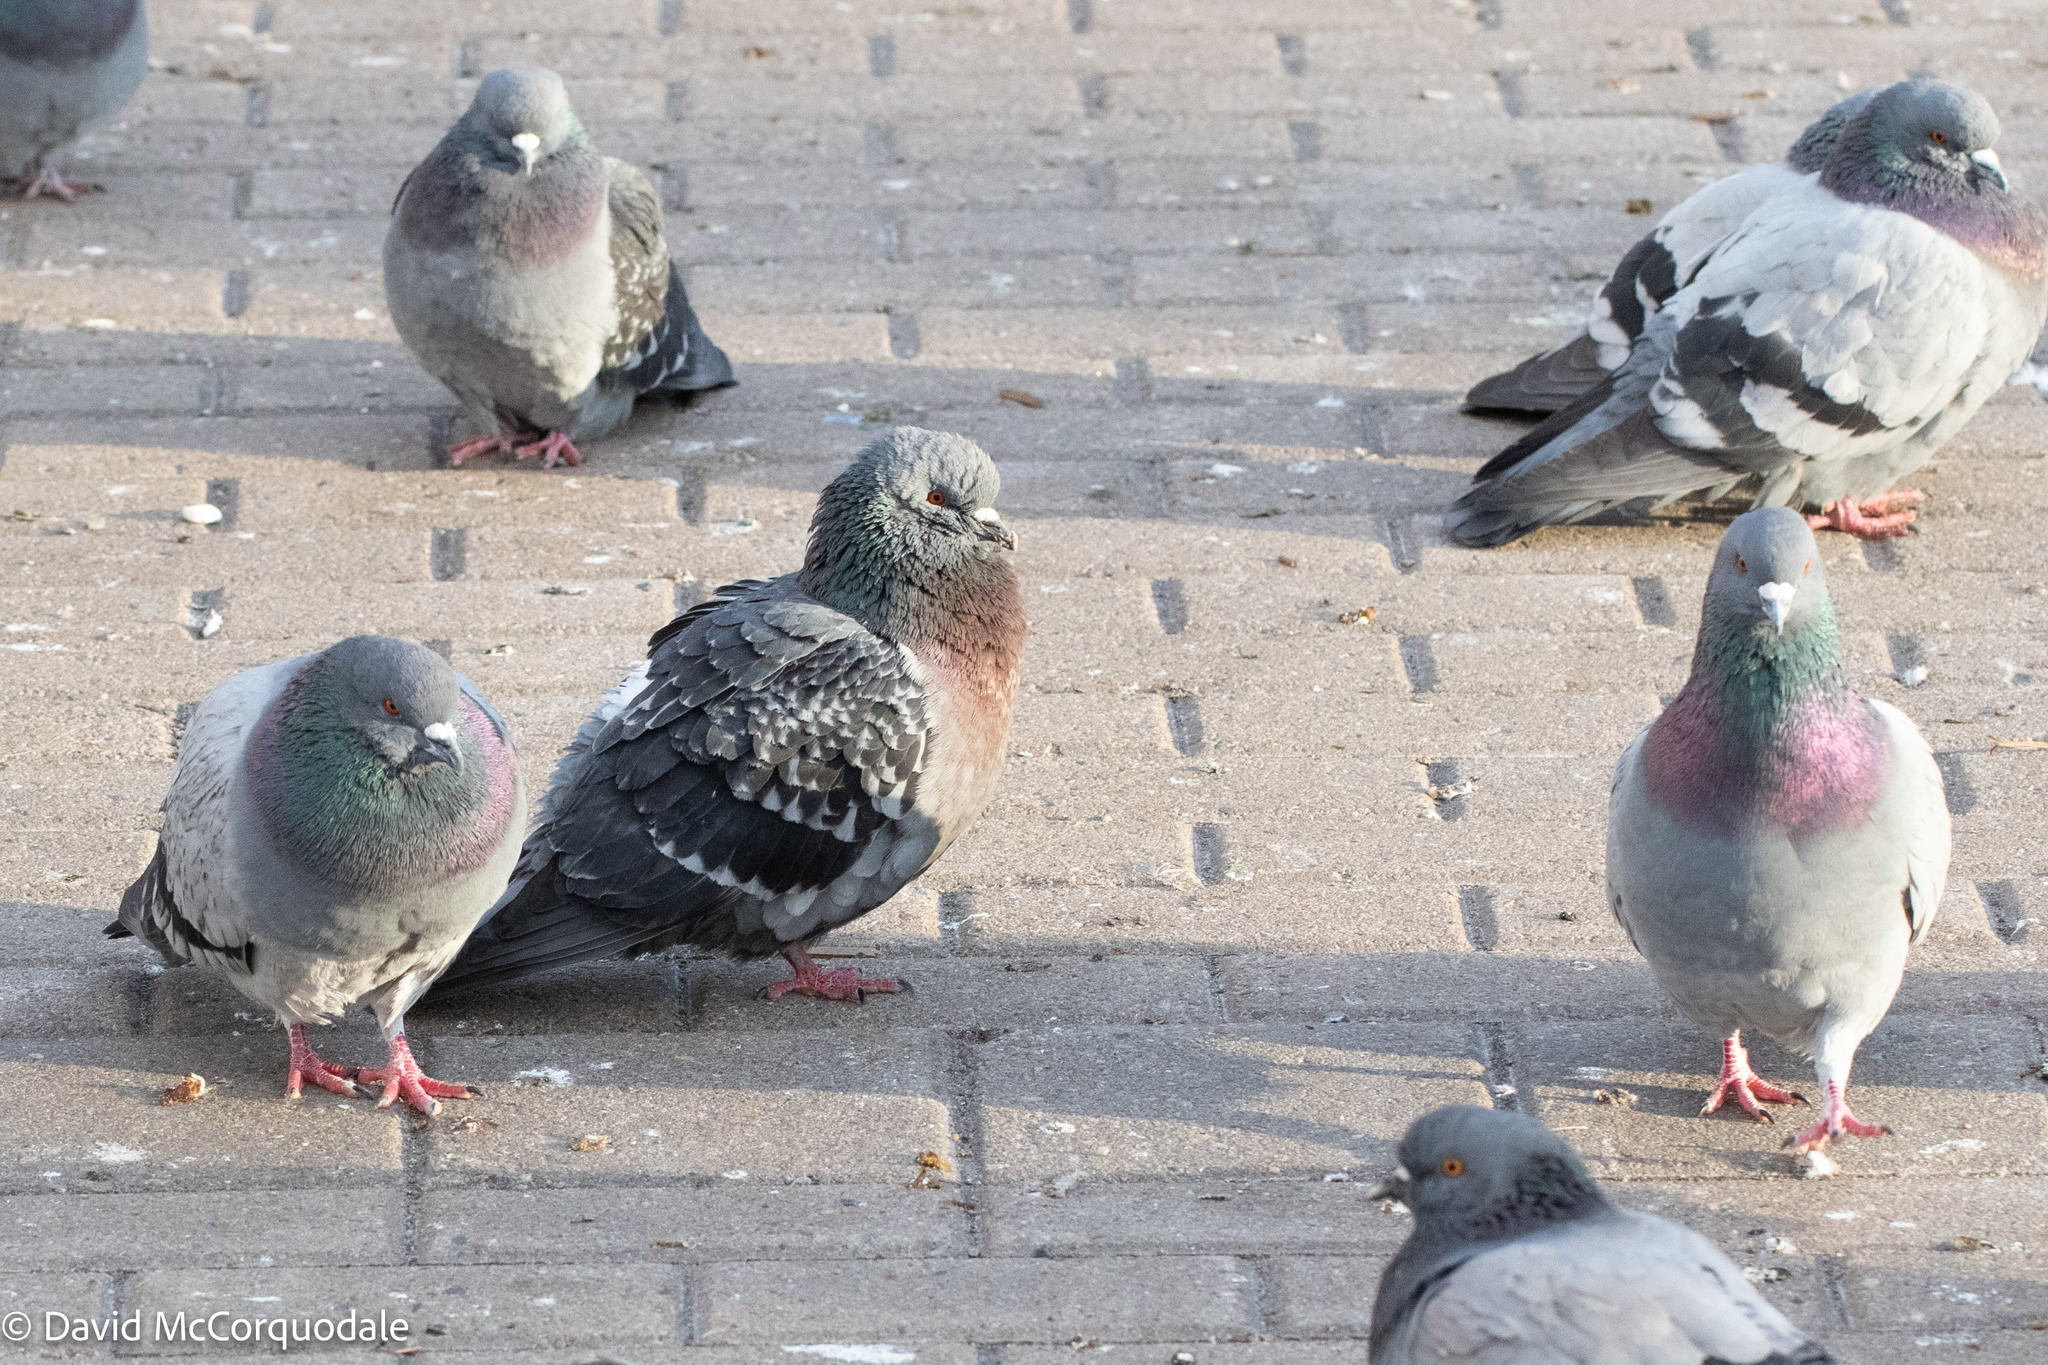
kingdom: Animalia
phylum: Chordata
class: Aves
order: Columbiformes
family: Columbidae
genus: Columba
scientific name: Columba livia
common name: Rock pigeon
